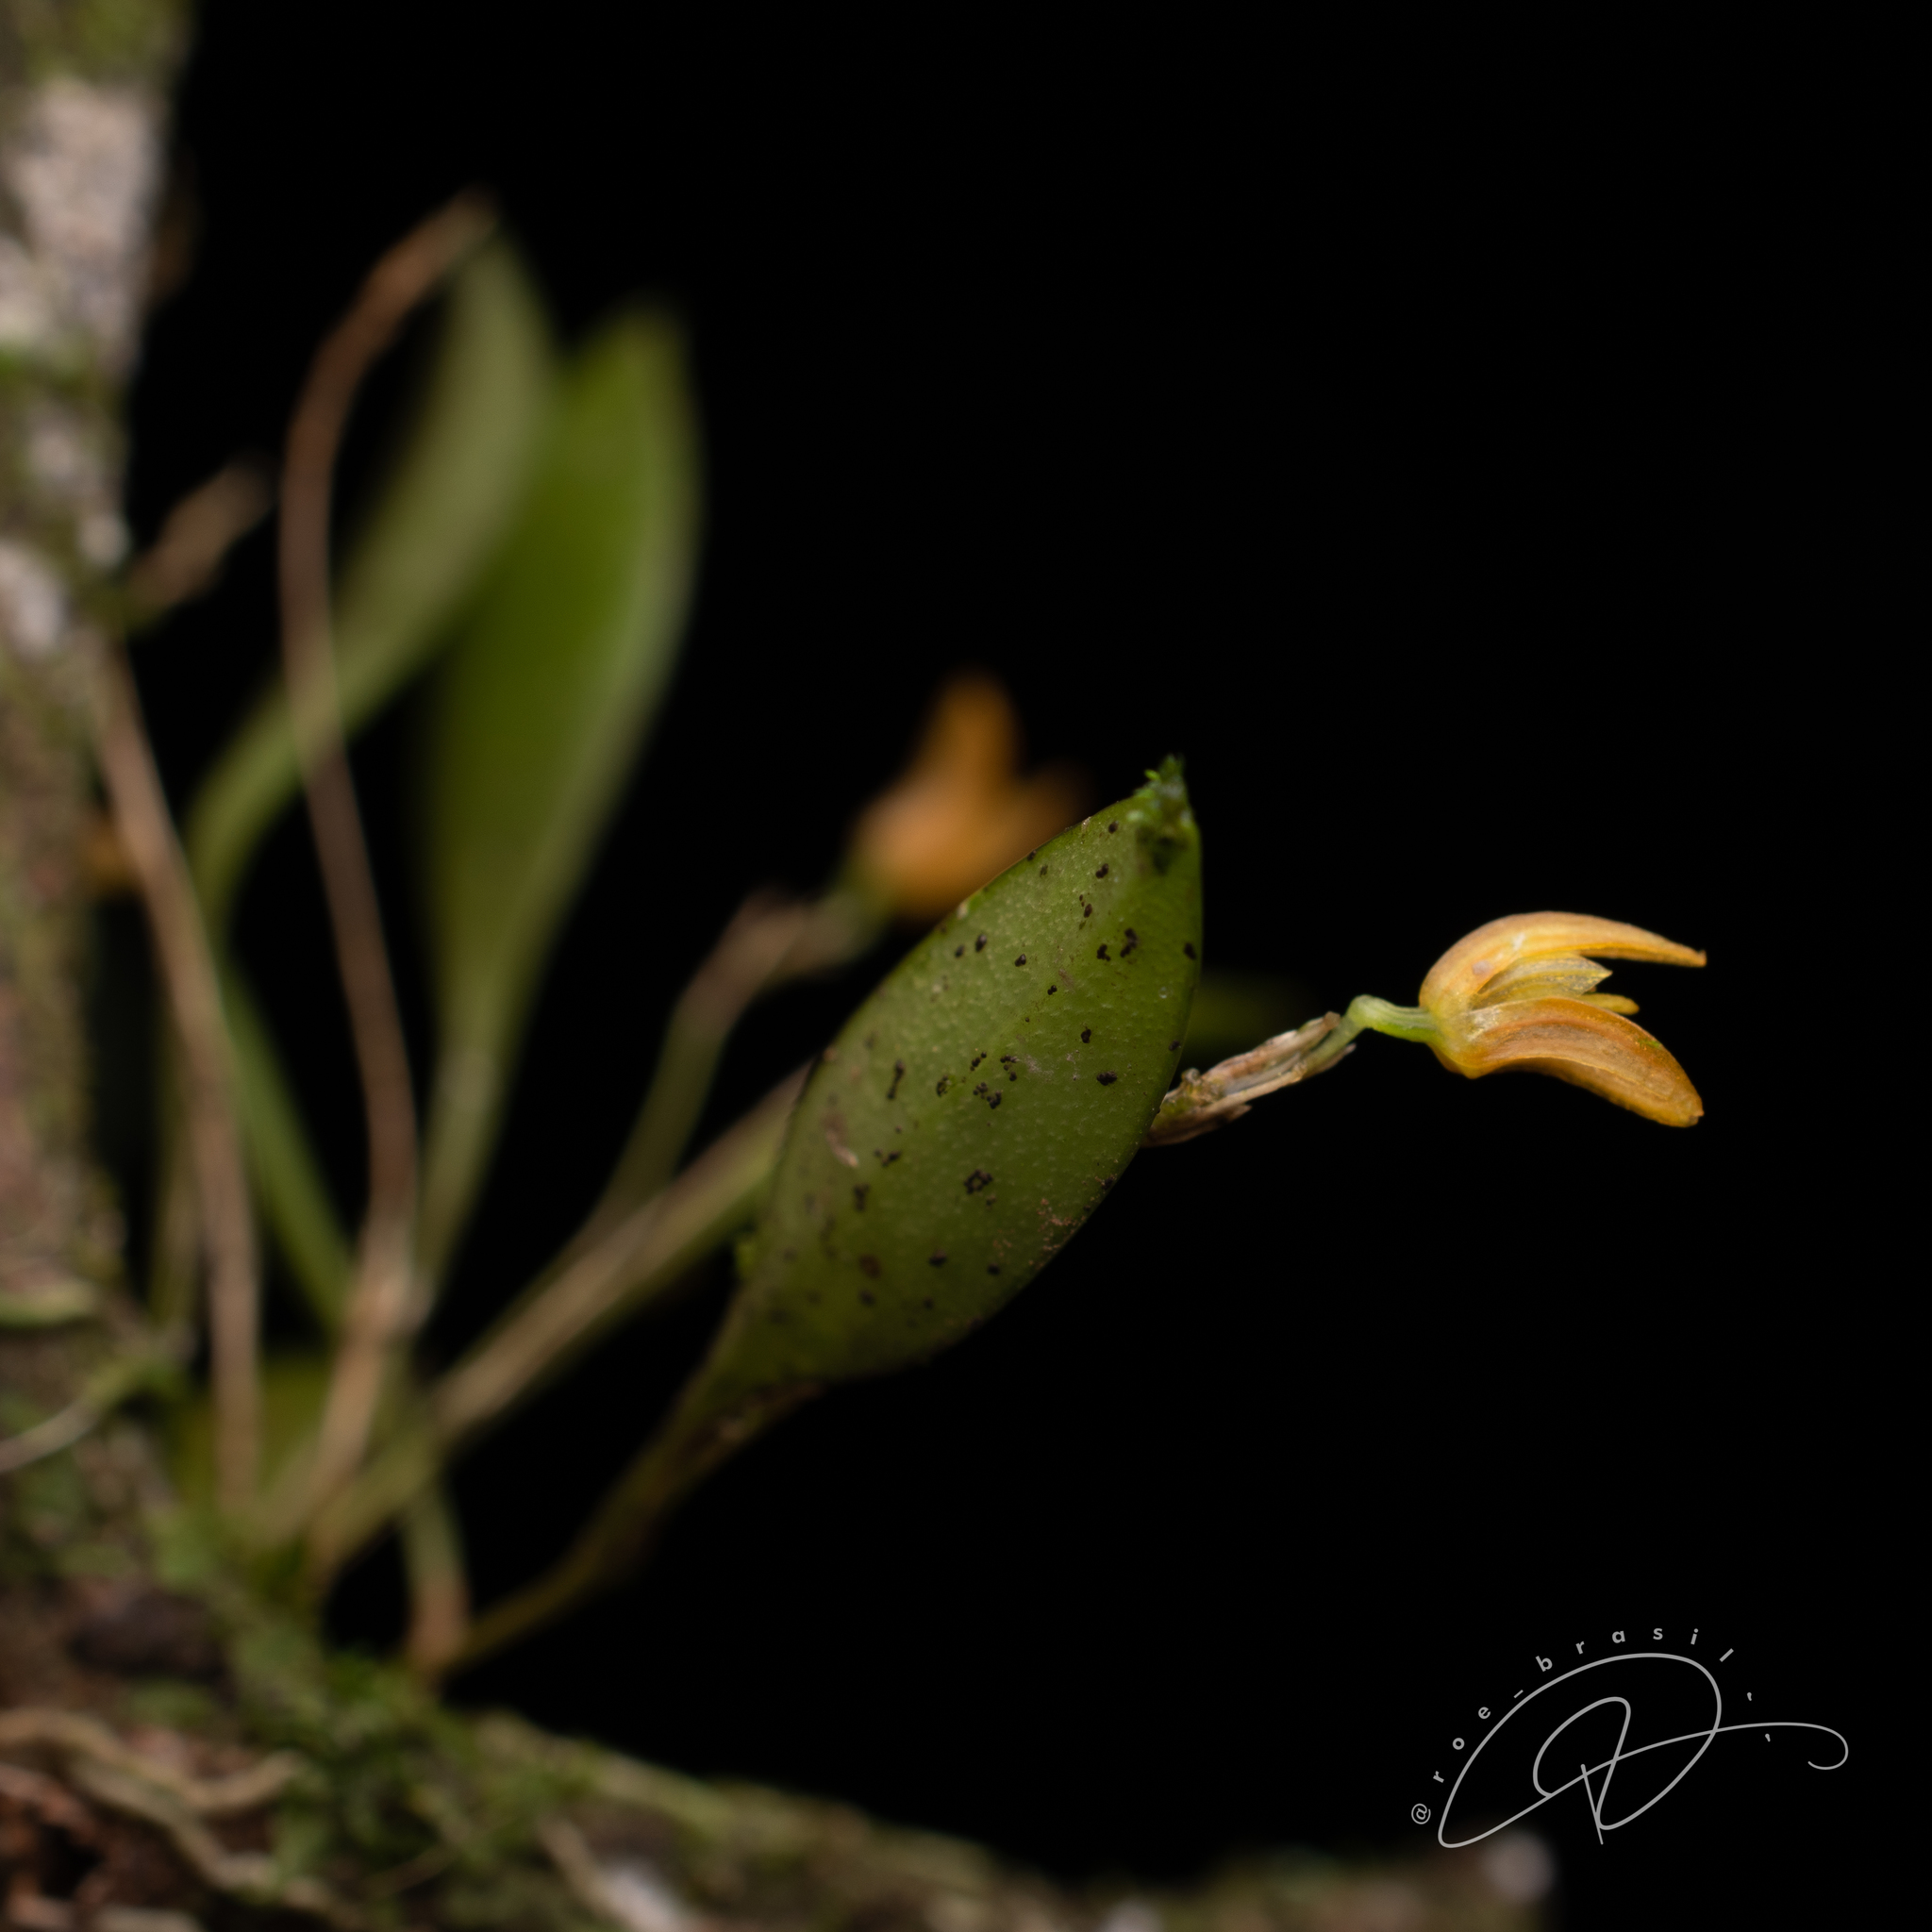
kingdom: Plantae
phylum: Tracheophyta
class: Liliopsida
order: Asparagales
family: Orchidaceae
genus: Pabstiella
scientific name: Pabstiella trifida
